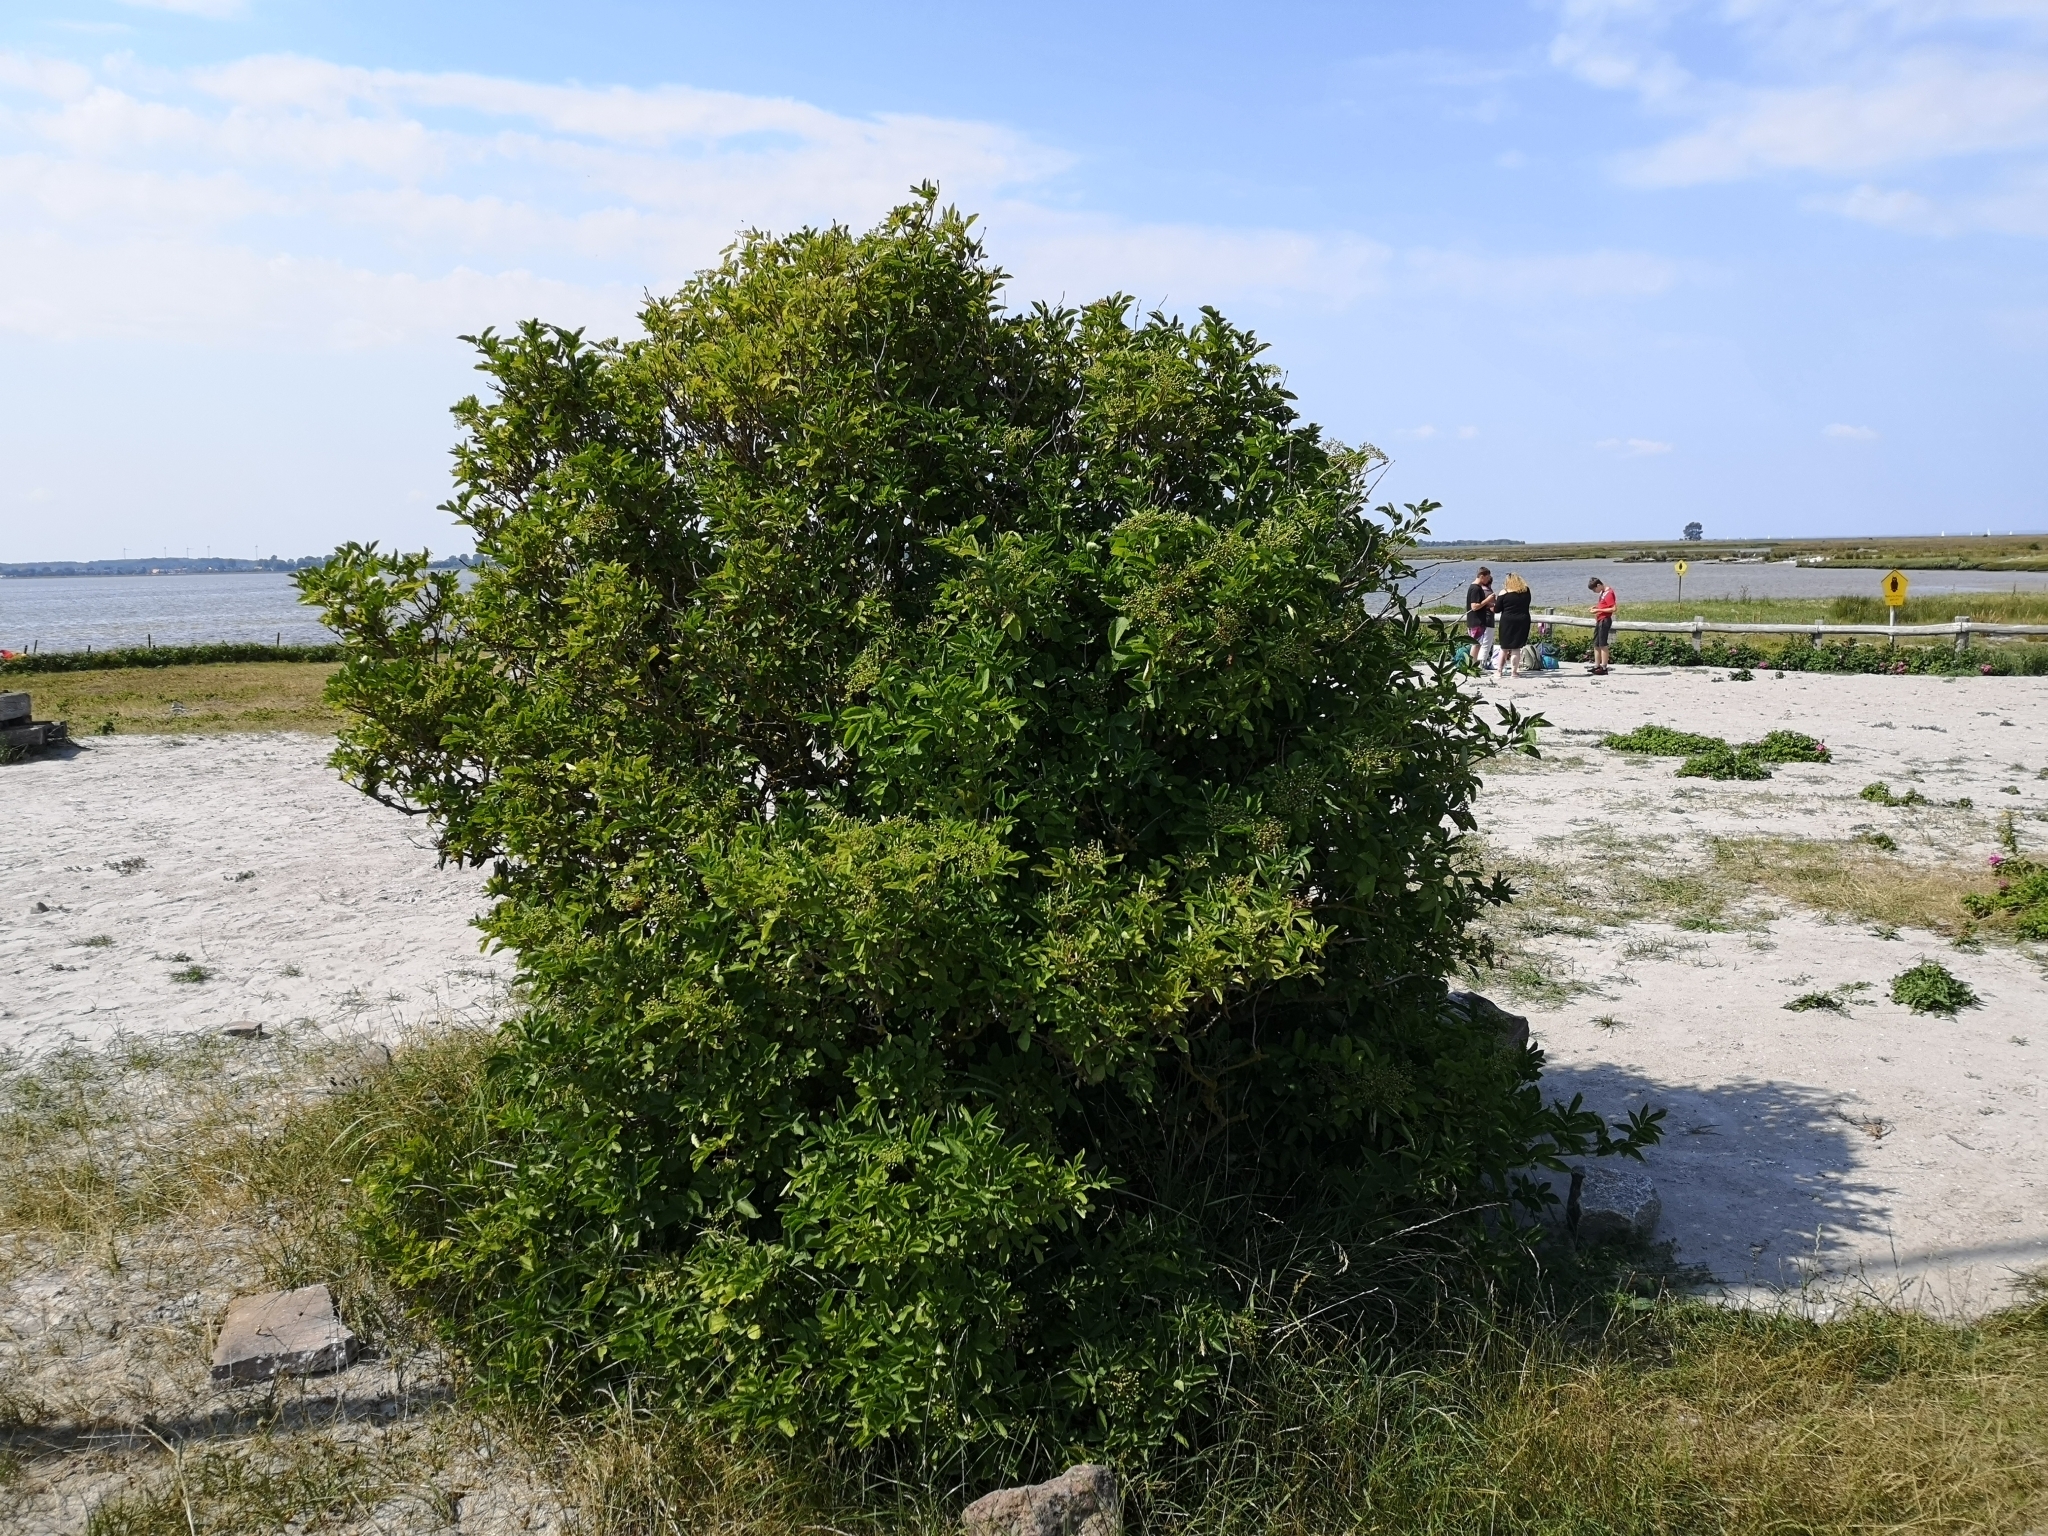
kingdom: Plantae
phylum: Tracheophyta
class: Magnoliopsida
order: Dipsacales
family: Viburnaceae
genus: Sambucus
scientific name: Sambucus nigra
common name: Elder
